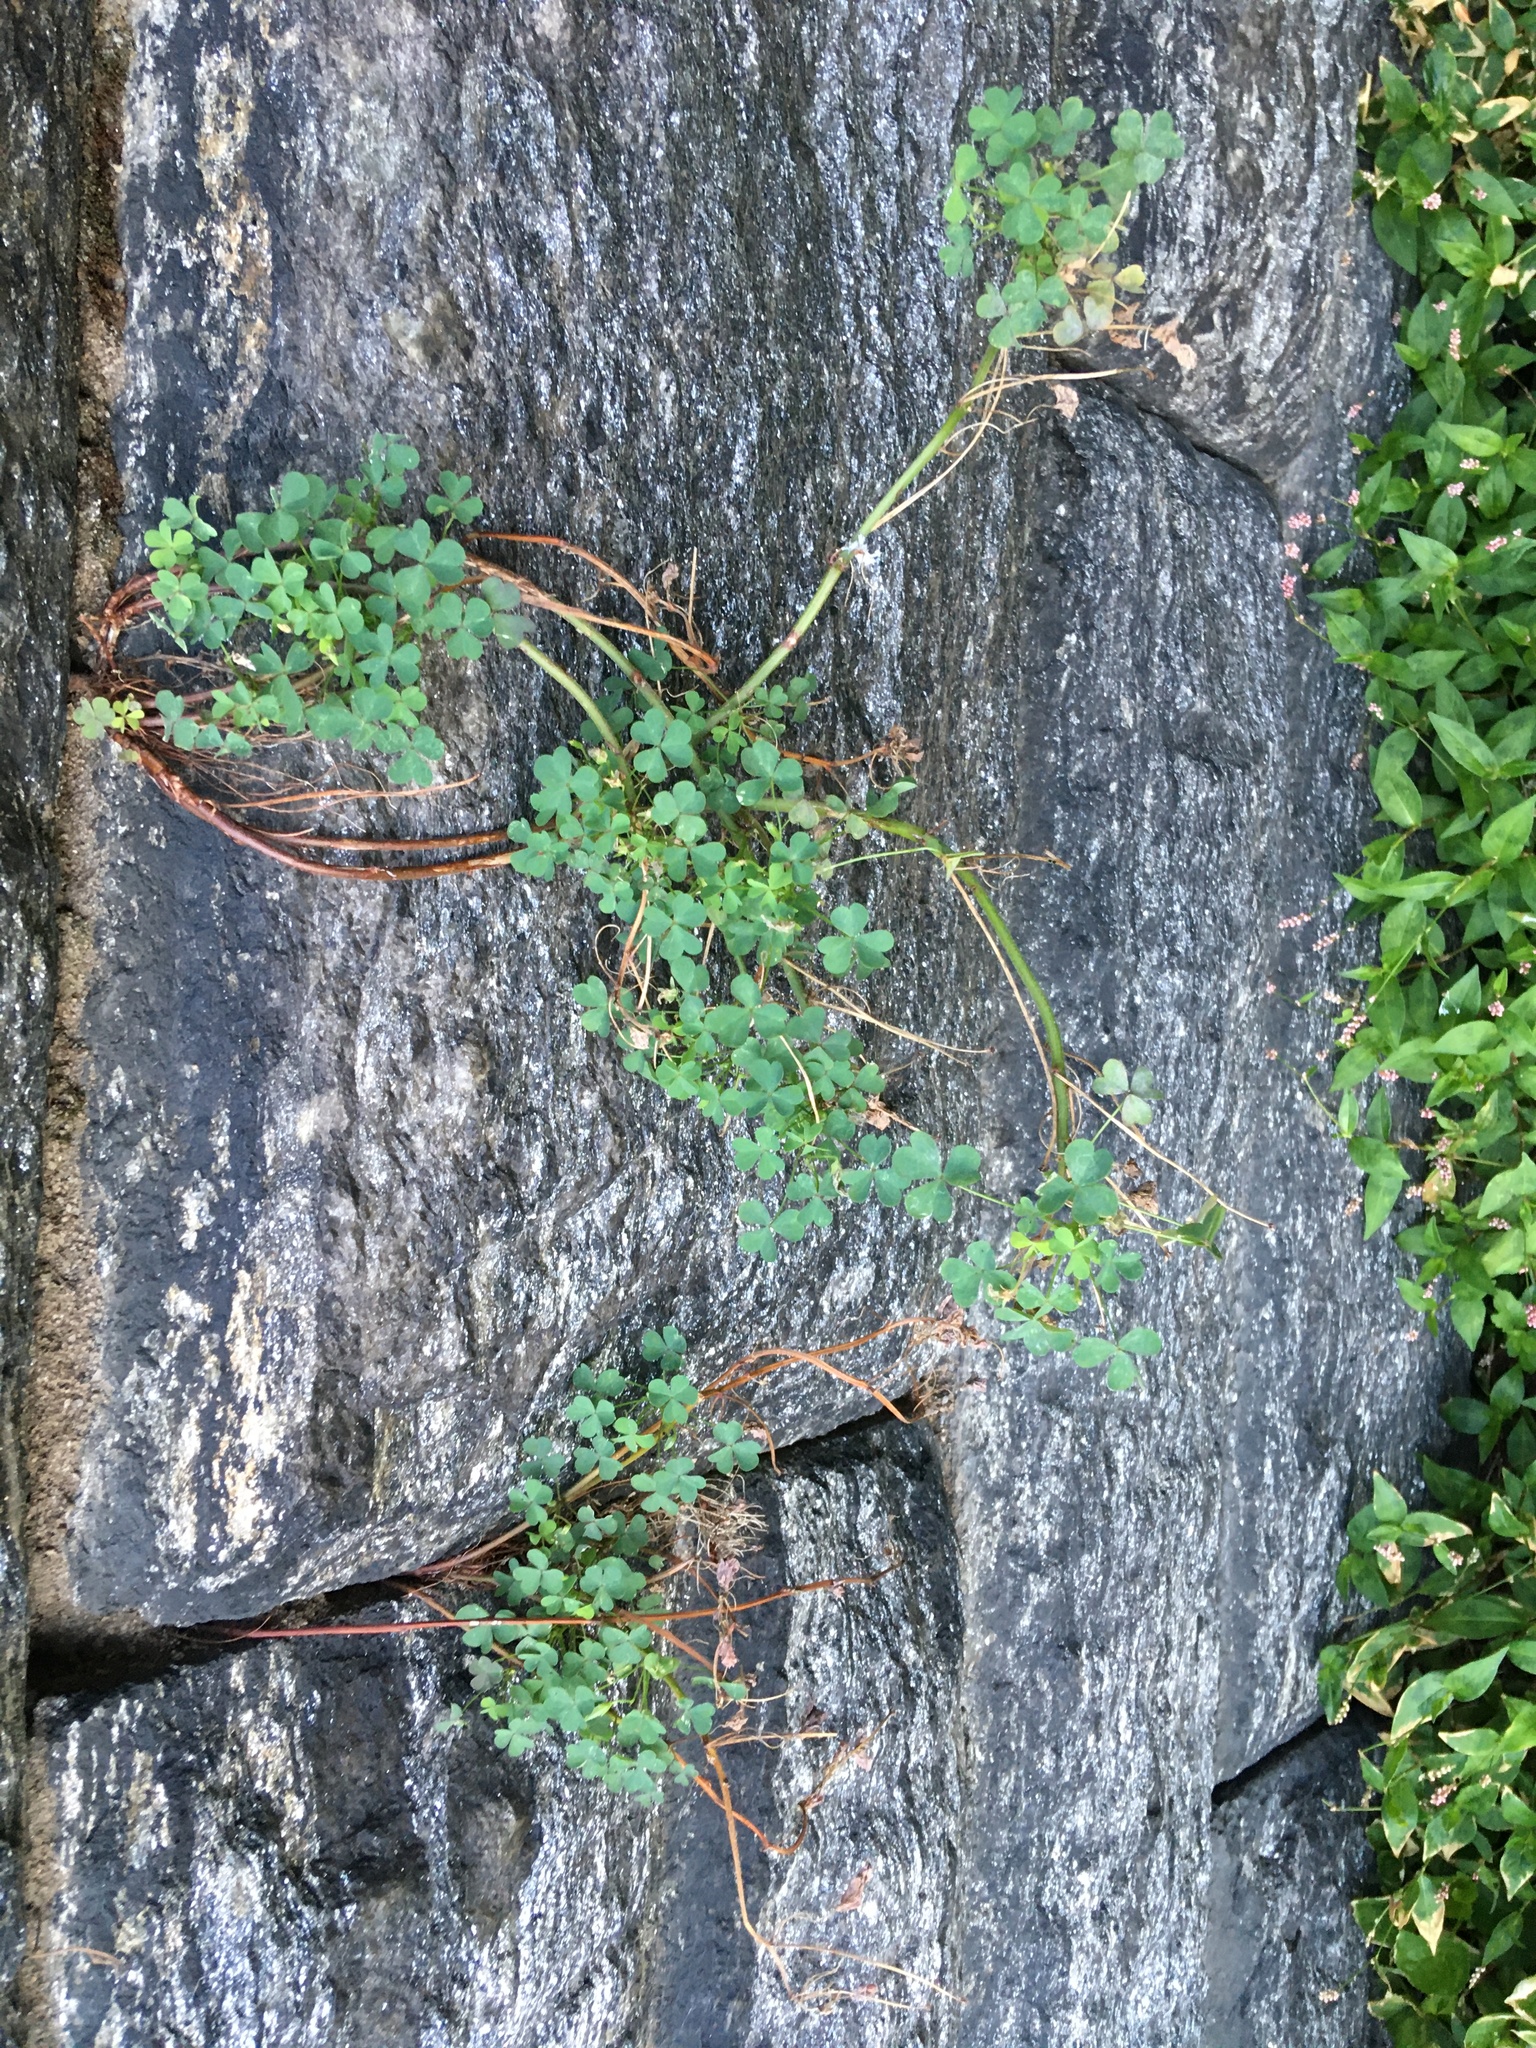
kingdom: Plantae
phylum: Tracheophyta
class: Magnoliopsida
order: Oxalidales
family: Oxalidaceae
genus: Oxalis
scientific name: Oxalis corniculata
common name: Procumbent yellow-sorrel
